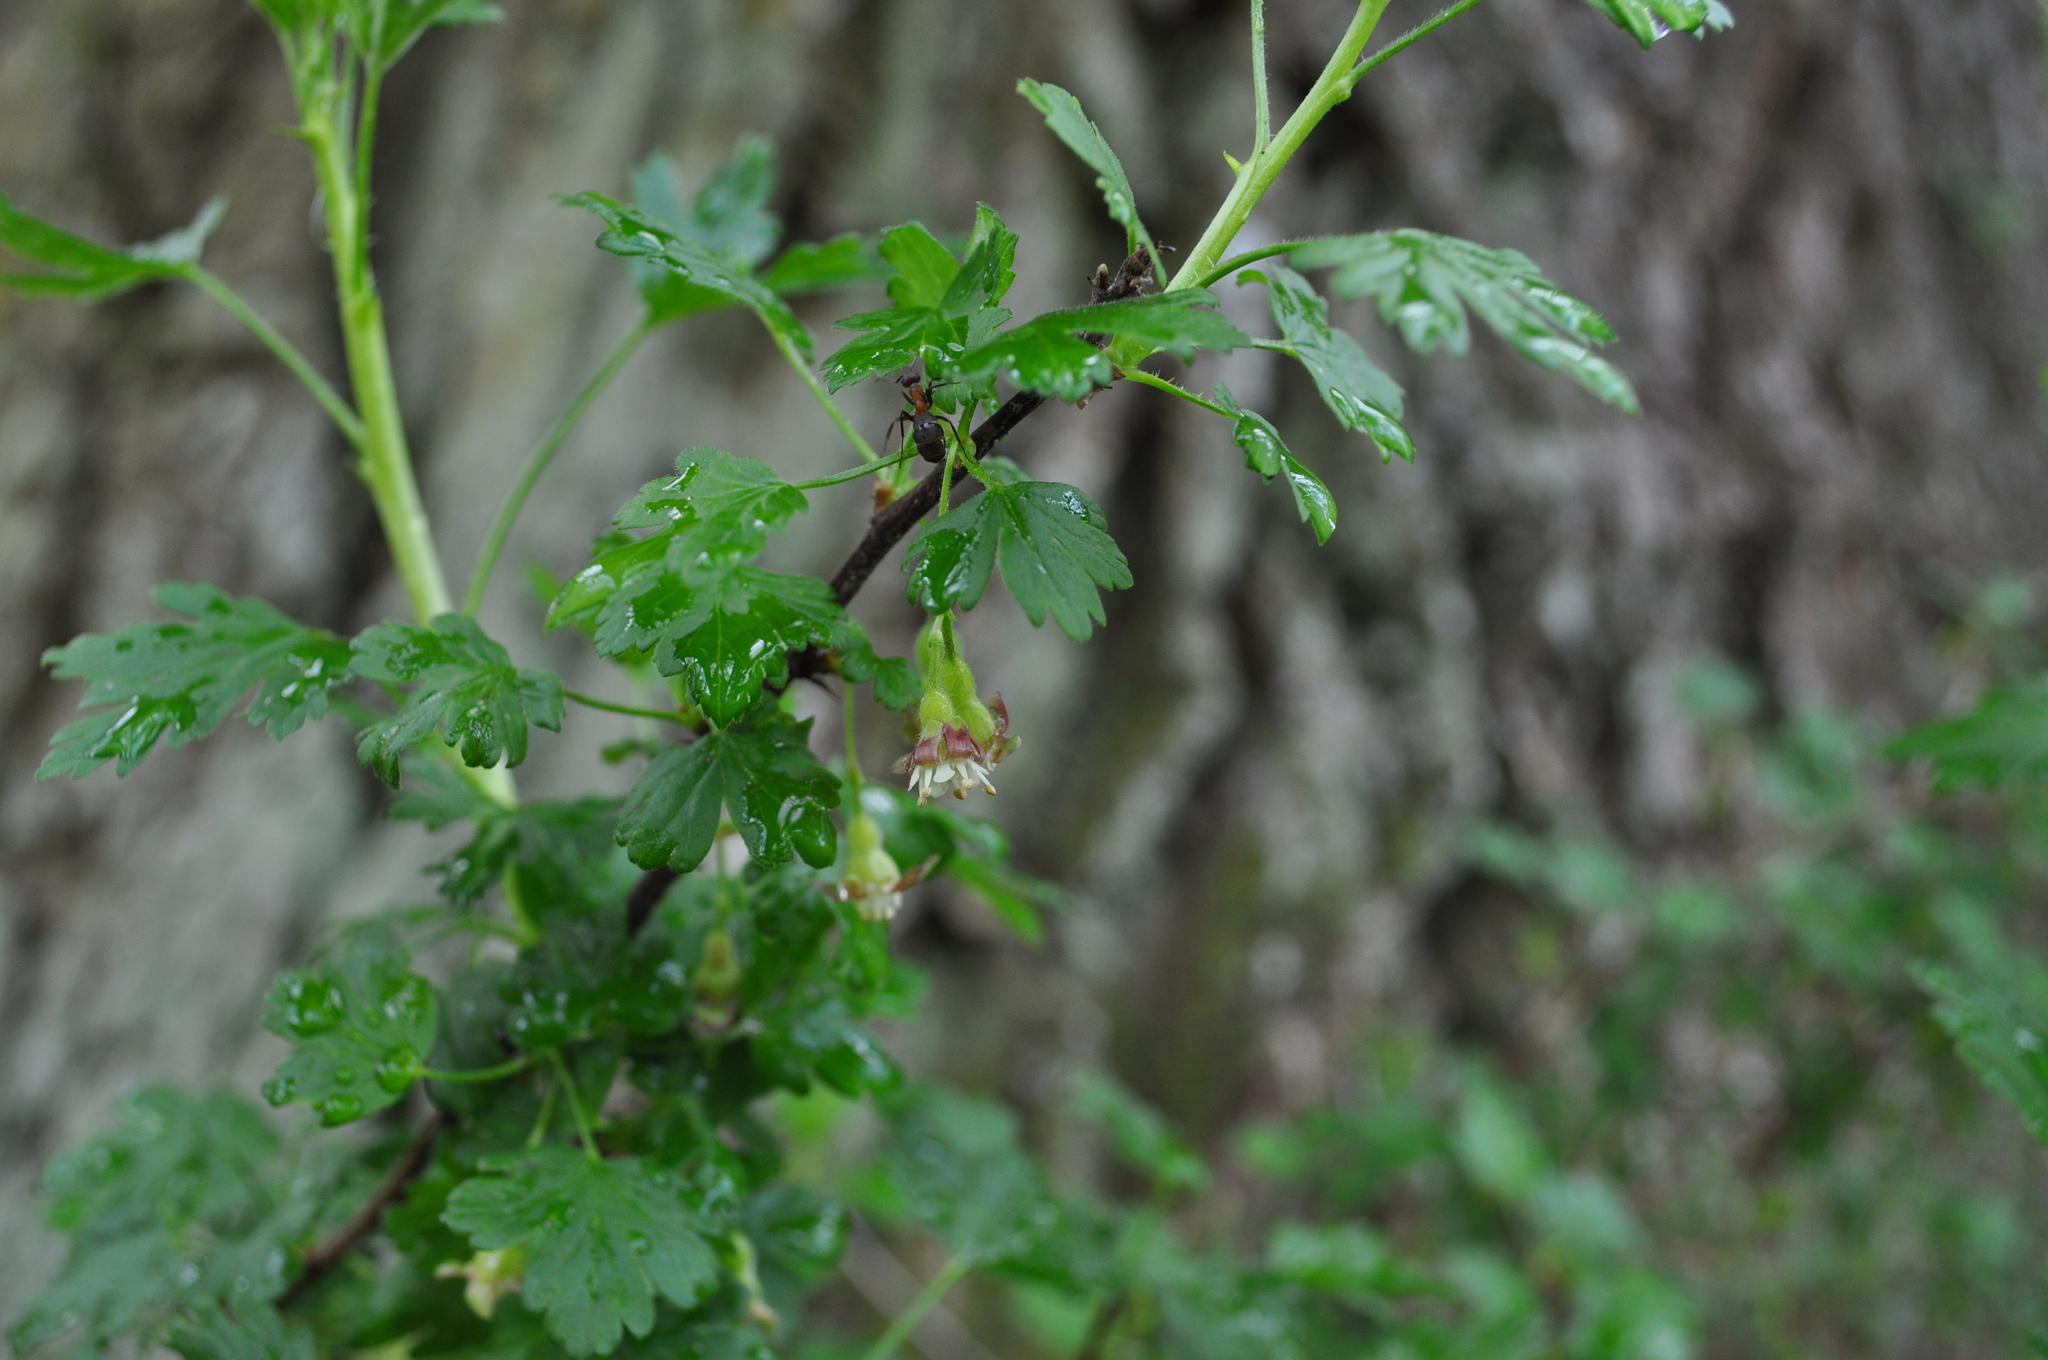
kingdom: Plantae
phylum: Tracheophyta
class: Magnoliopsida
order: Saxifragales
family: Grossulariaceae
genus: Ribes
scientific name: Ribes uva-crispa
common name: Gooseberry
